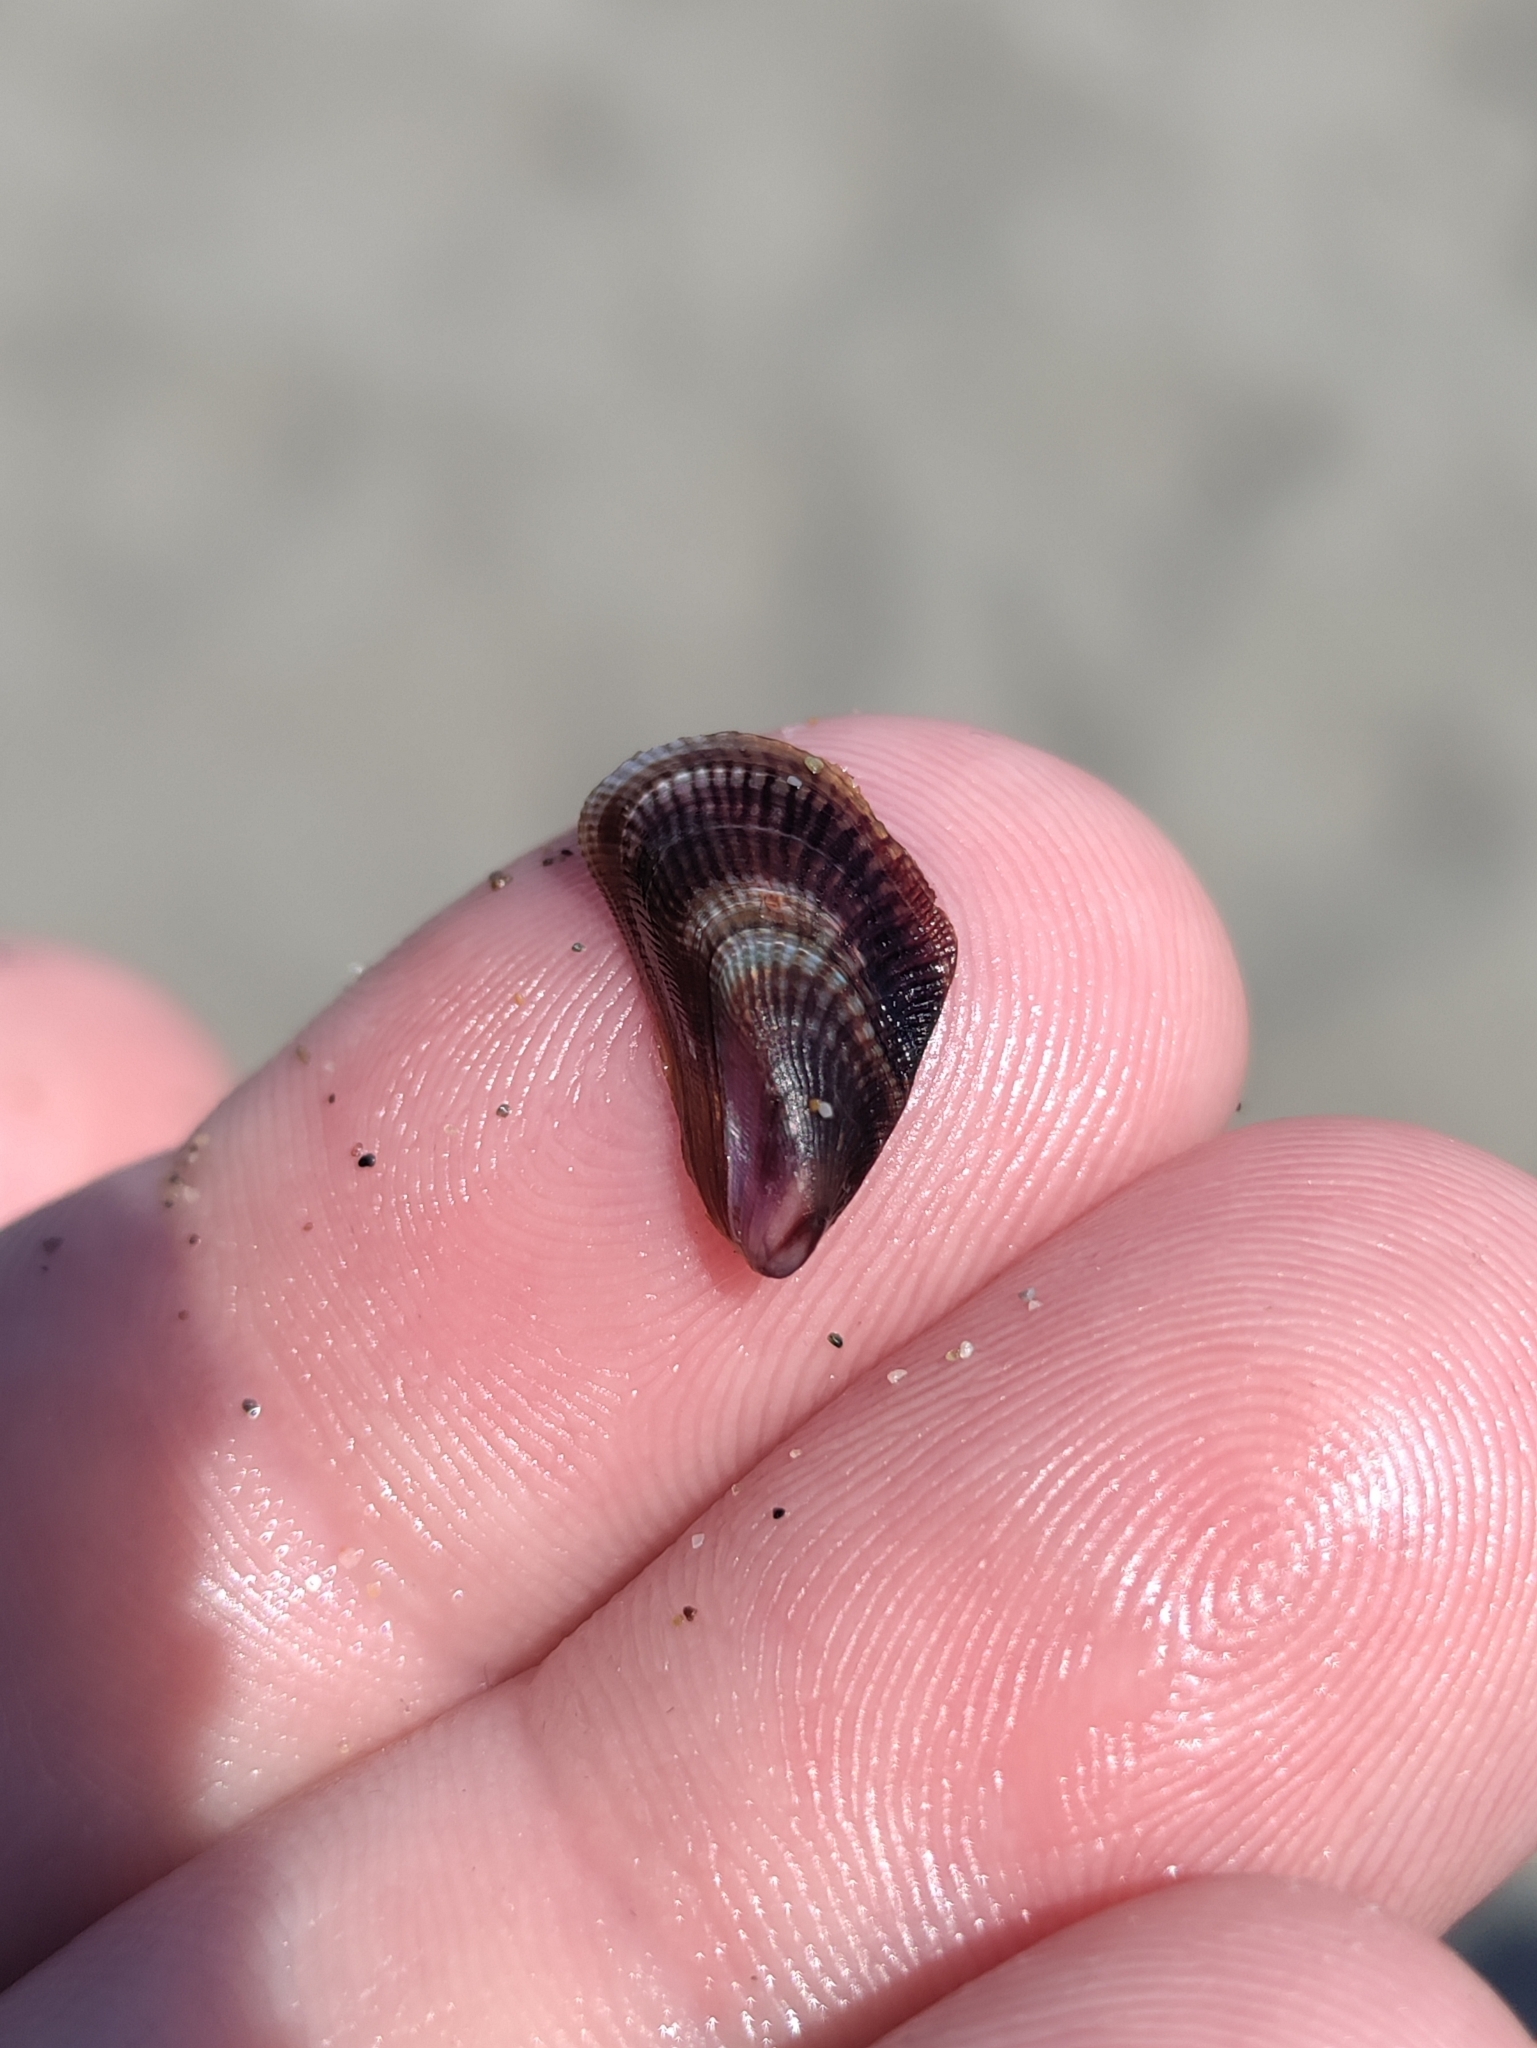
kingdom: Animalia
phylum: Mollusca
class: Bivalvia
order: Mytilida
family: Mytilidae
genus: Brachidontes
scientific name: Brachidontes pharaonis
